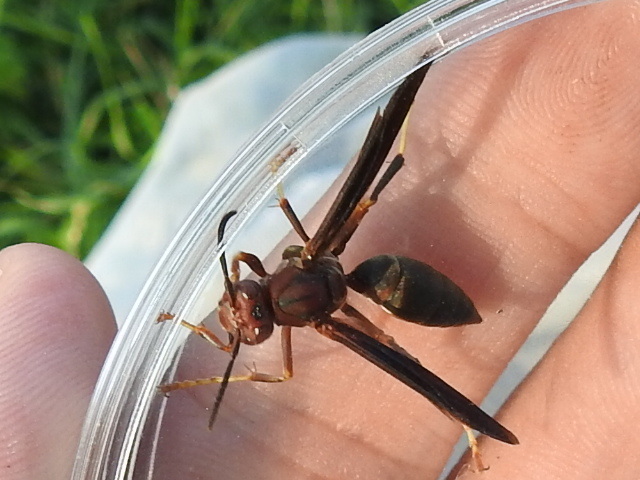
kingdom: Animalia
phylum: Arthropoda
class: Insecta
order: Hymenoptera
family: Eumenidae
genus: Polistes
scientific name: Polistes metricus
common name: Metric paper wasp
